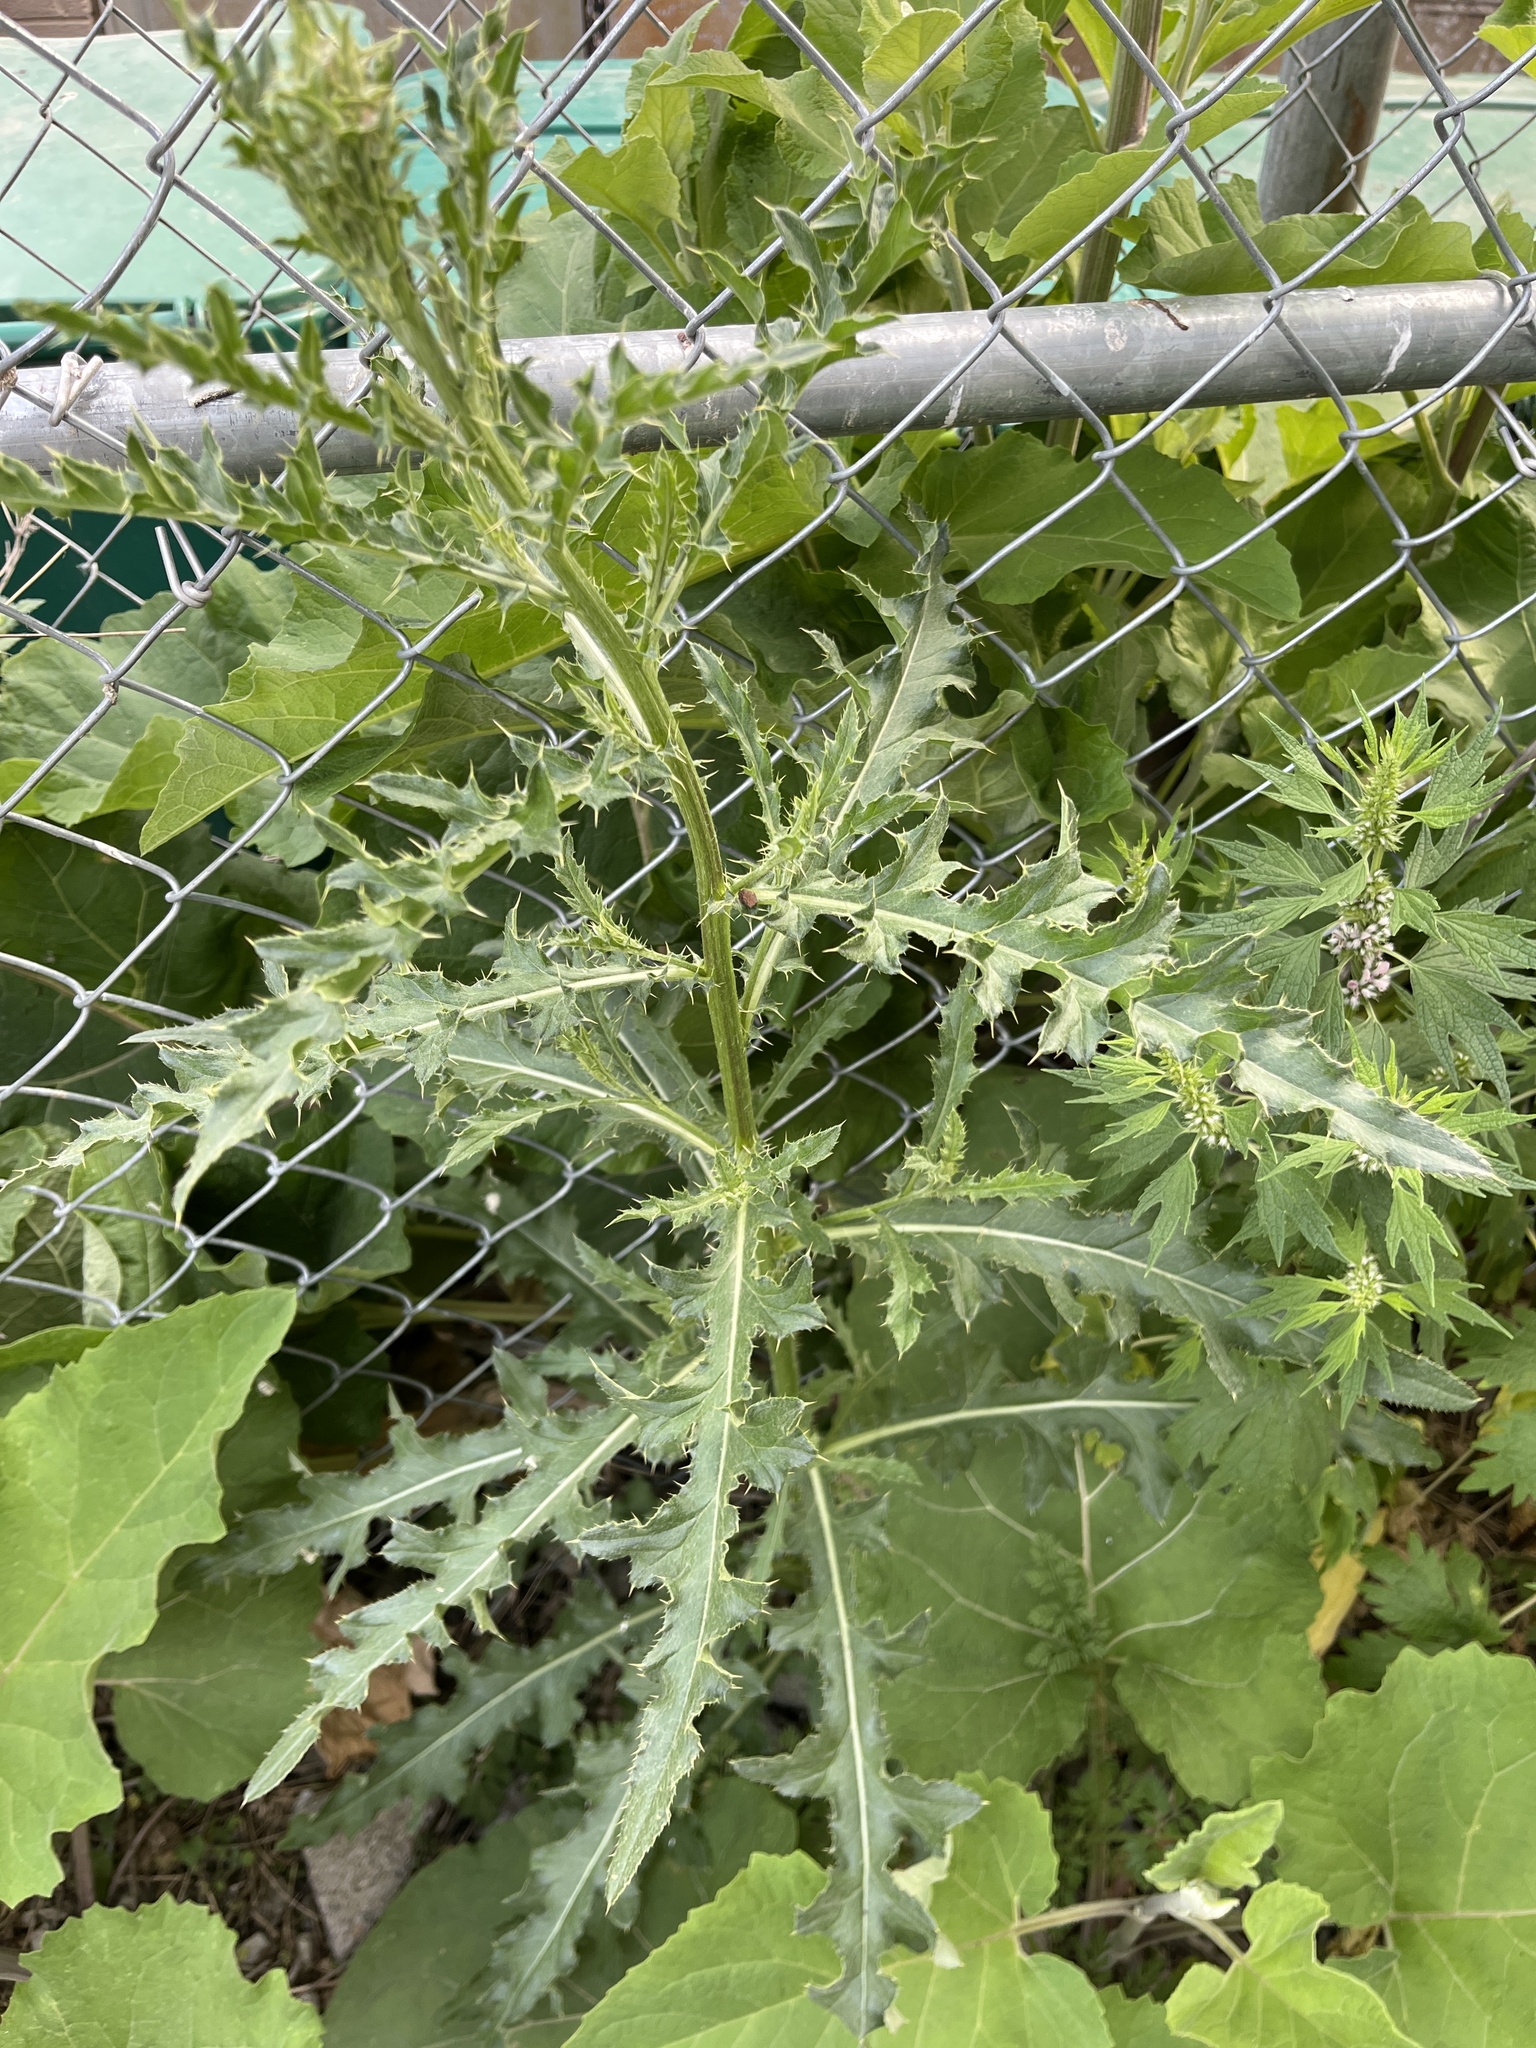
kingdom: Plantae
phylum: Tracheophyta
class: Magnoliopsida
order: Asterales
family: Asteraceae
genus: Cirsium
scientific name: Cirsium arvense
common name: Creeping thistle
